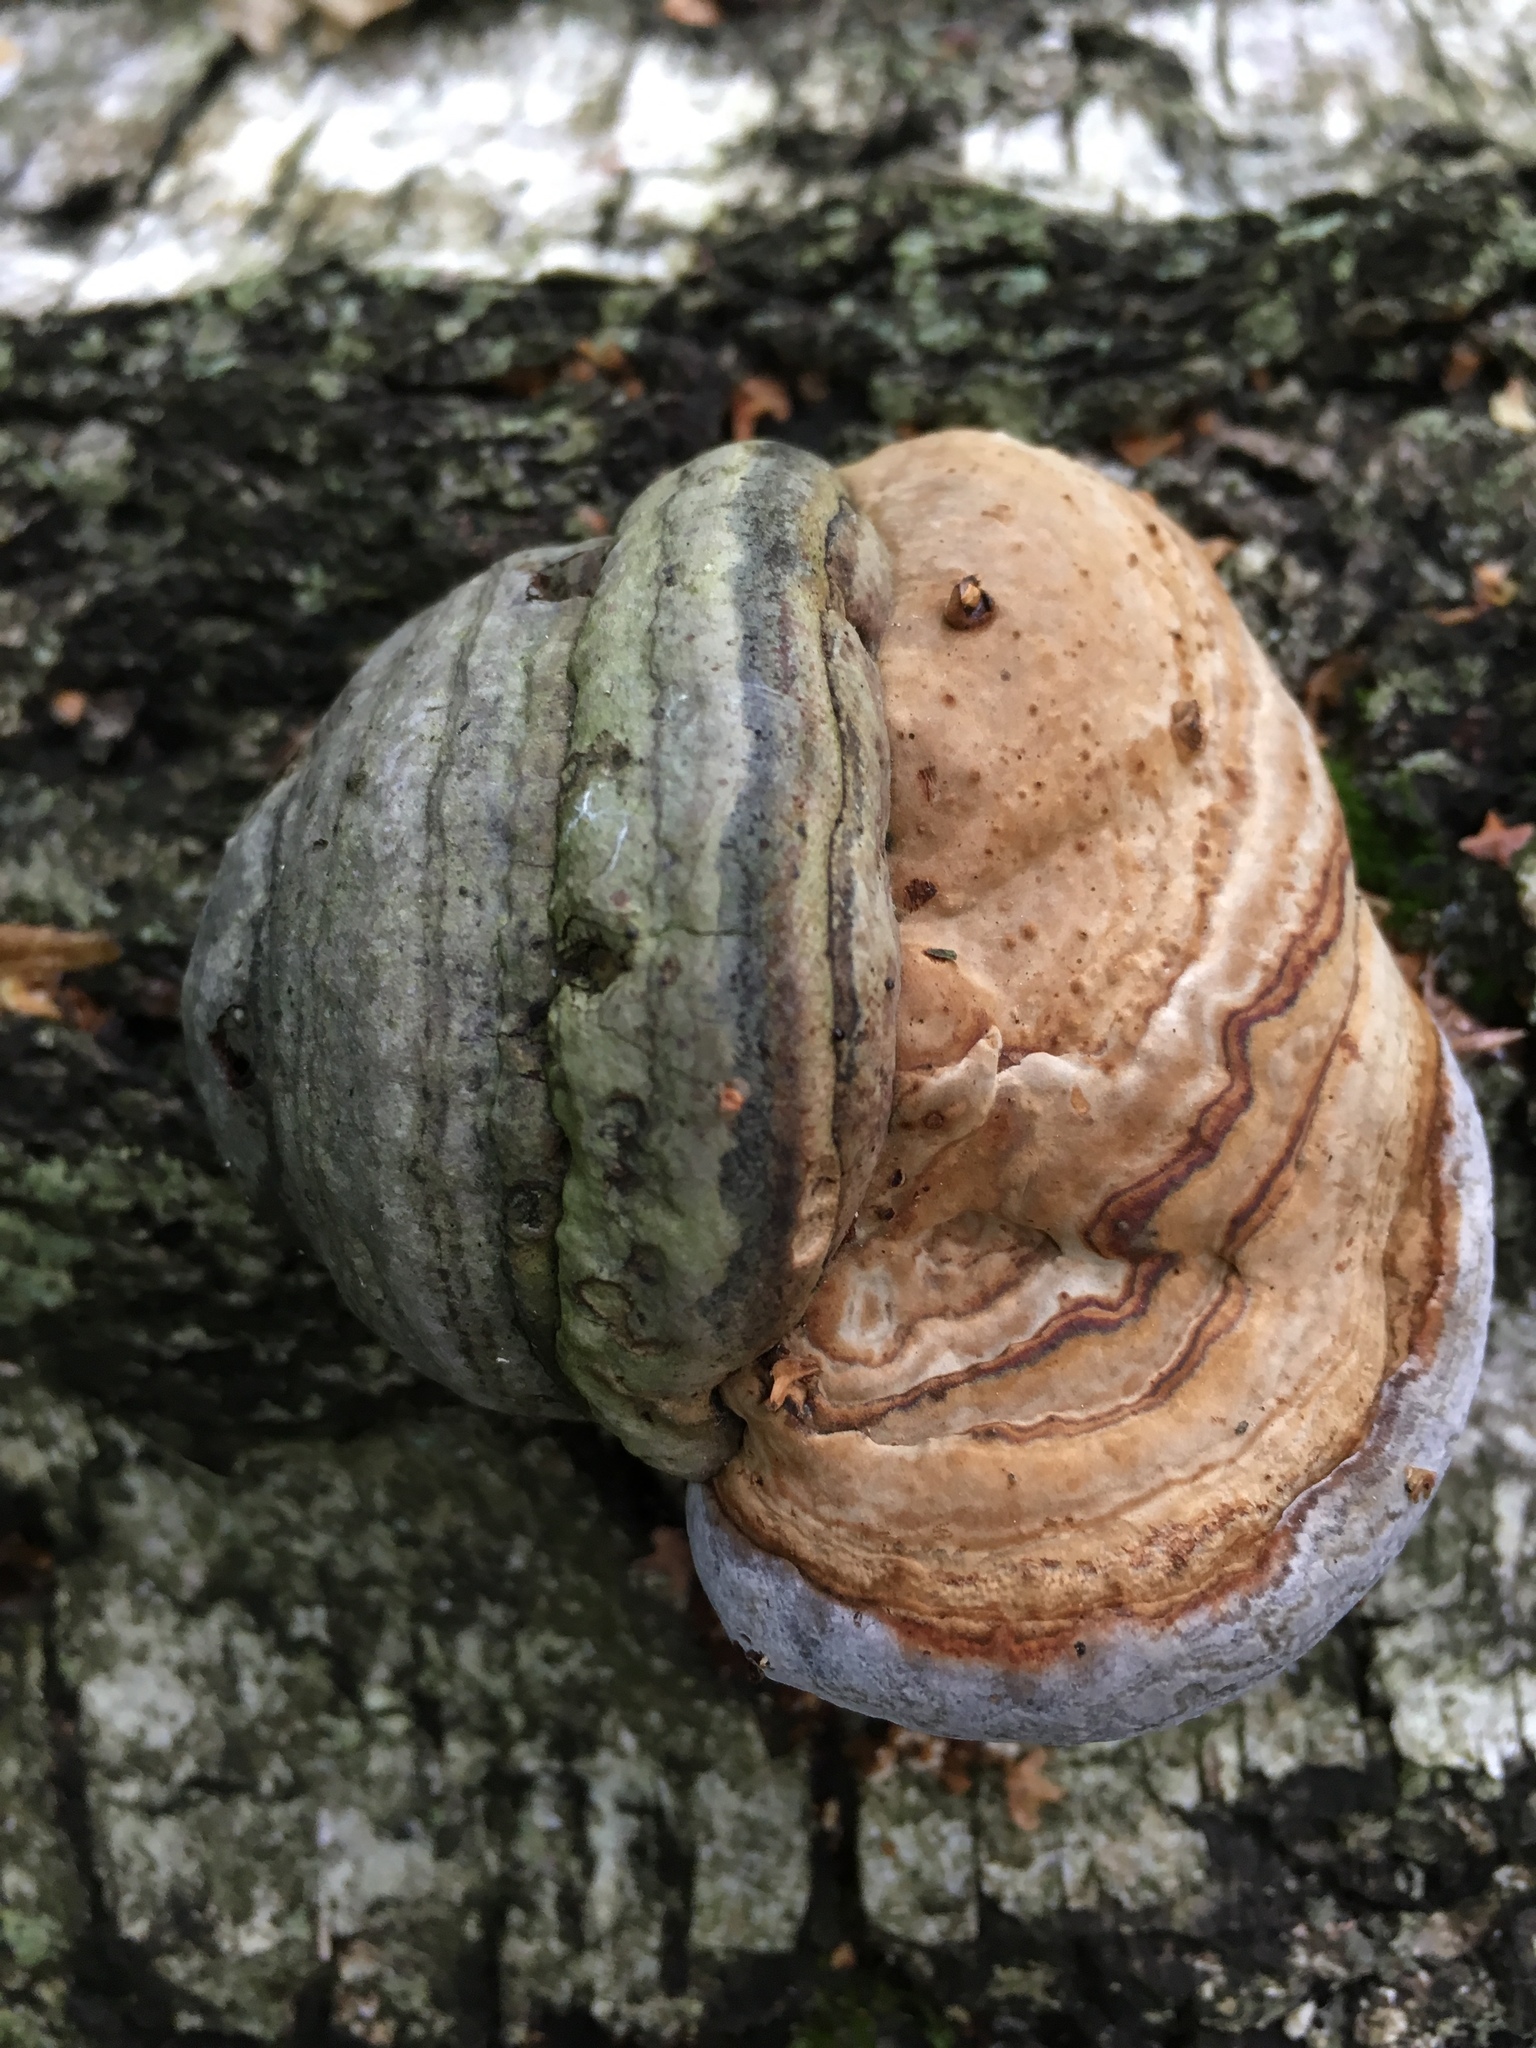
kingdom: Fungi
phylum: Basidiomycota
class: Agaricomycetes
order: Polyporales
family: Polyporaceae
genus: Fomes
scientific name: Fomes fomentarius
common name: Hoof fungus
